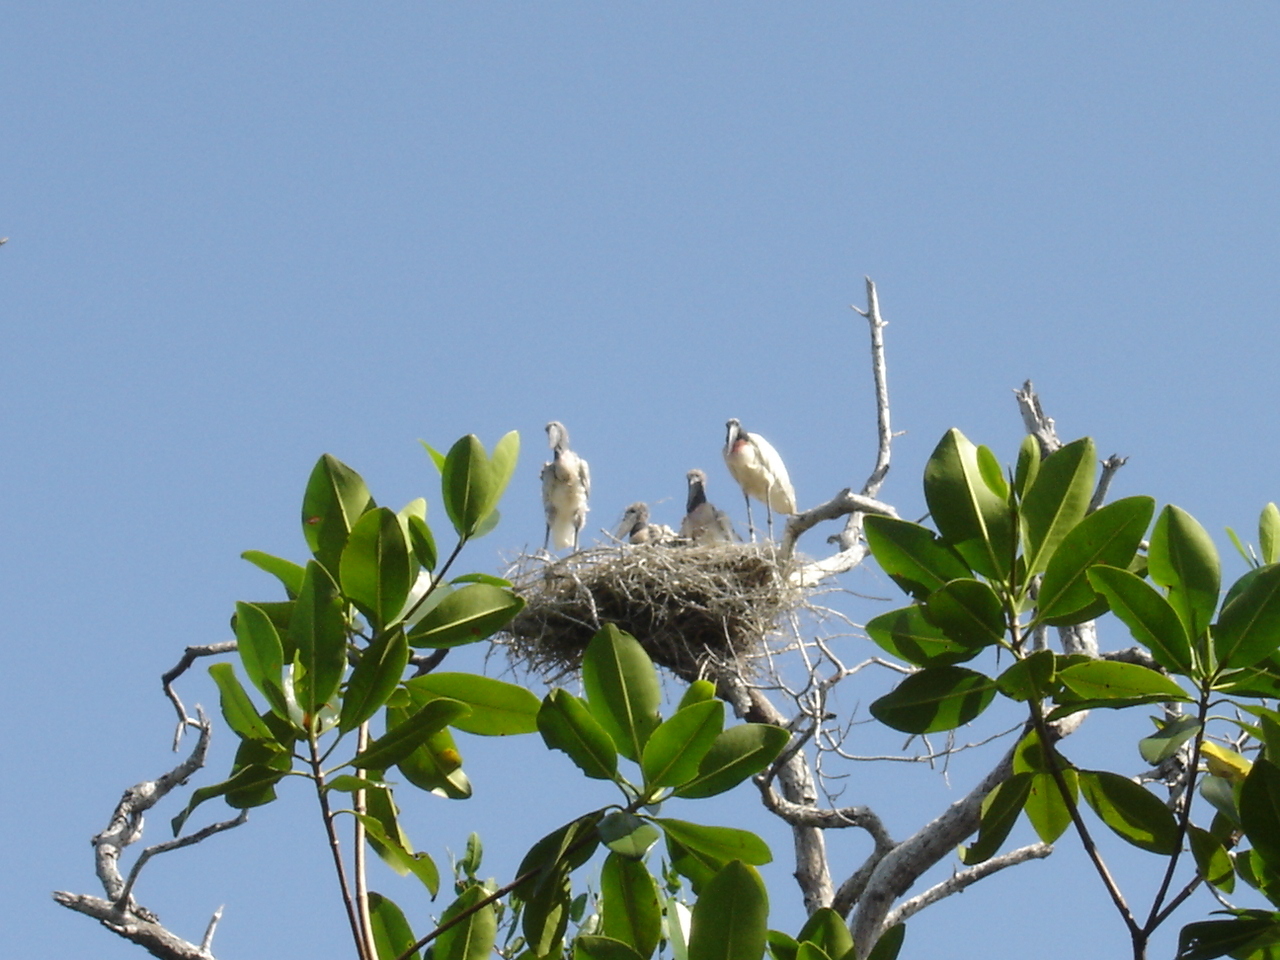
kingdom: Animalia
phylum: Chordata
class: Aves
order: Ciconiiformes
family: Ciconiidae
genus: Jabiru
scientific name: Jabiru mycteria
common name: Jabiru
